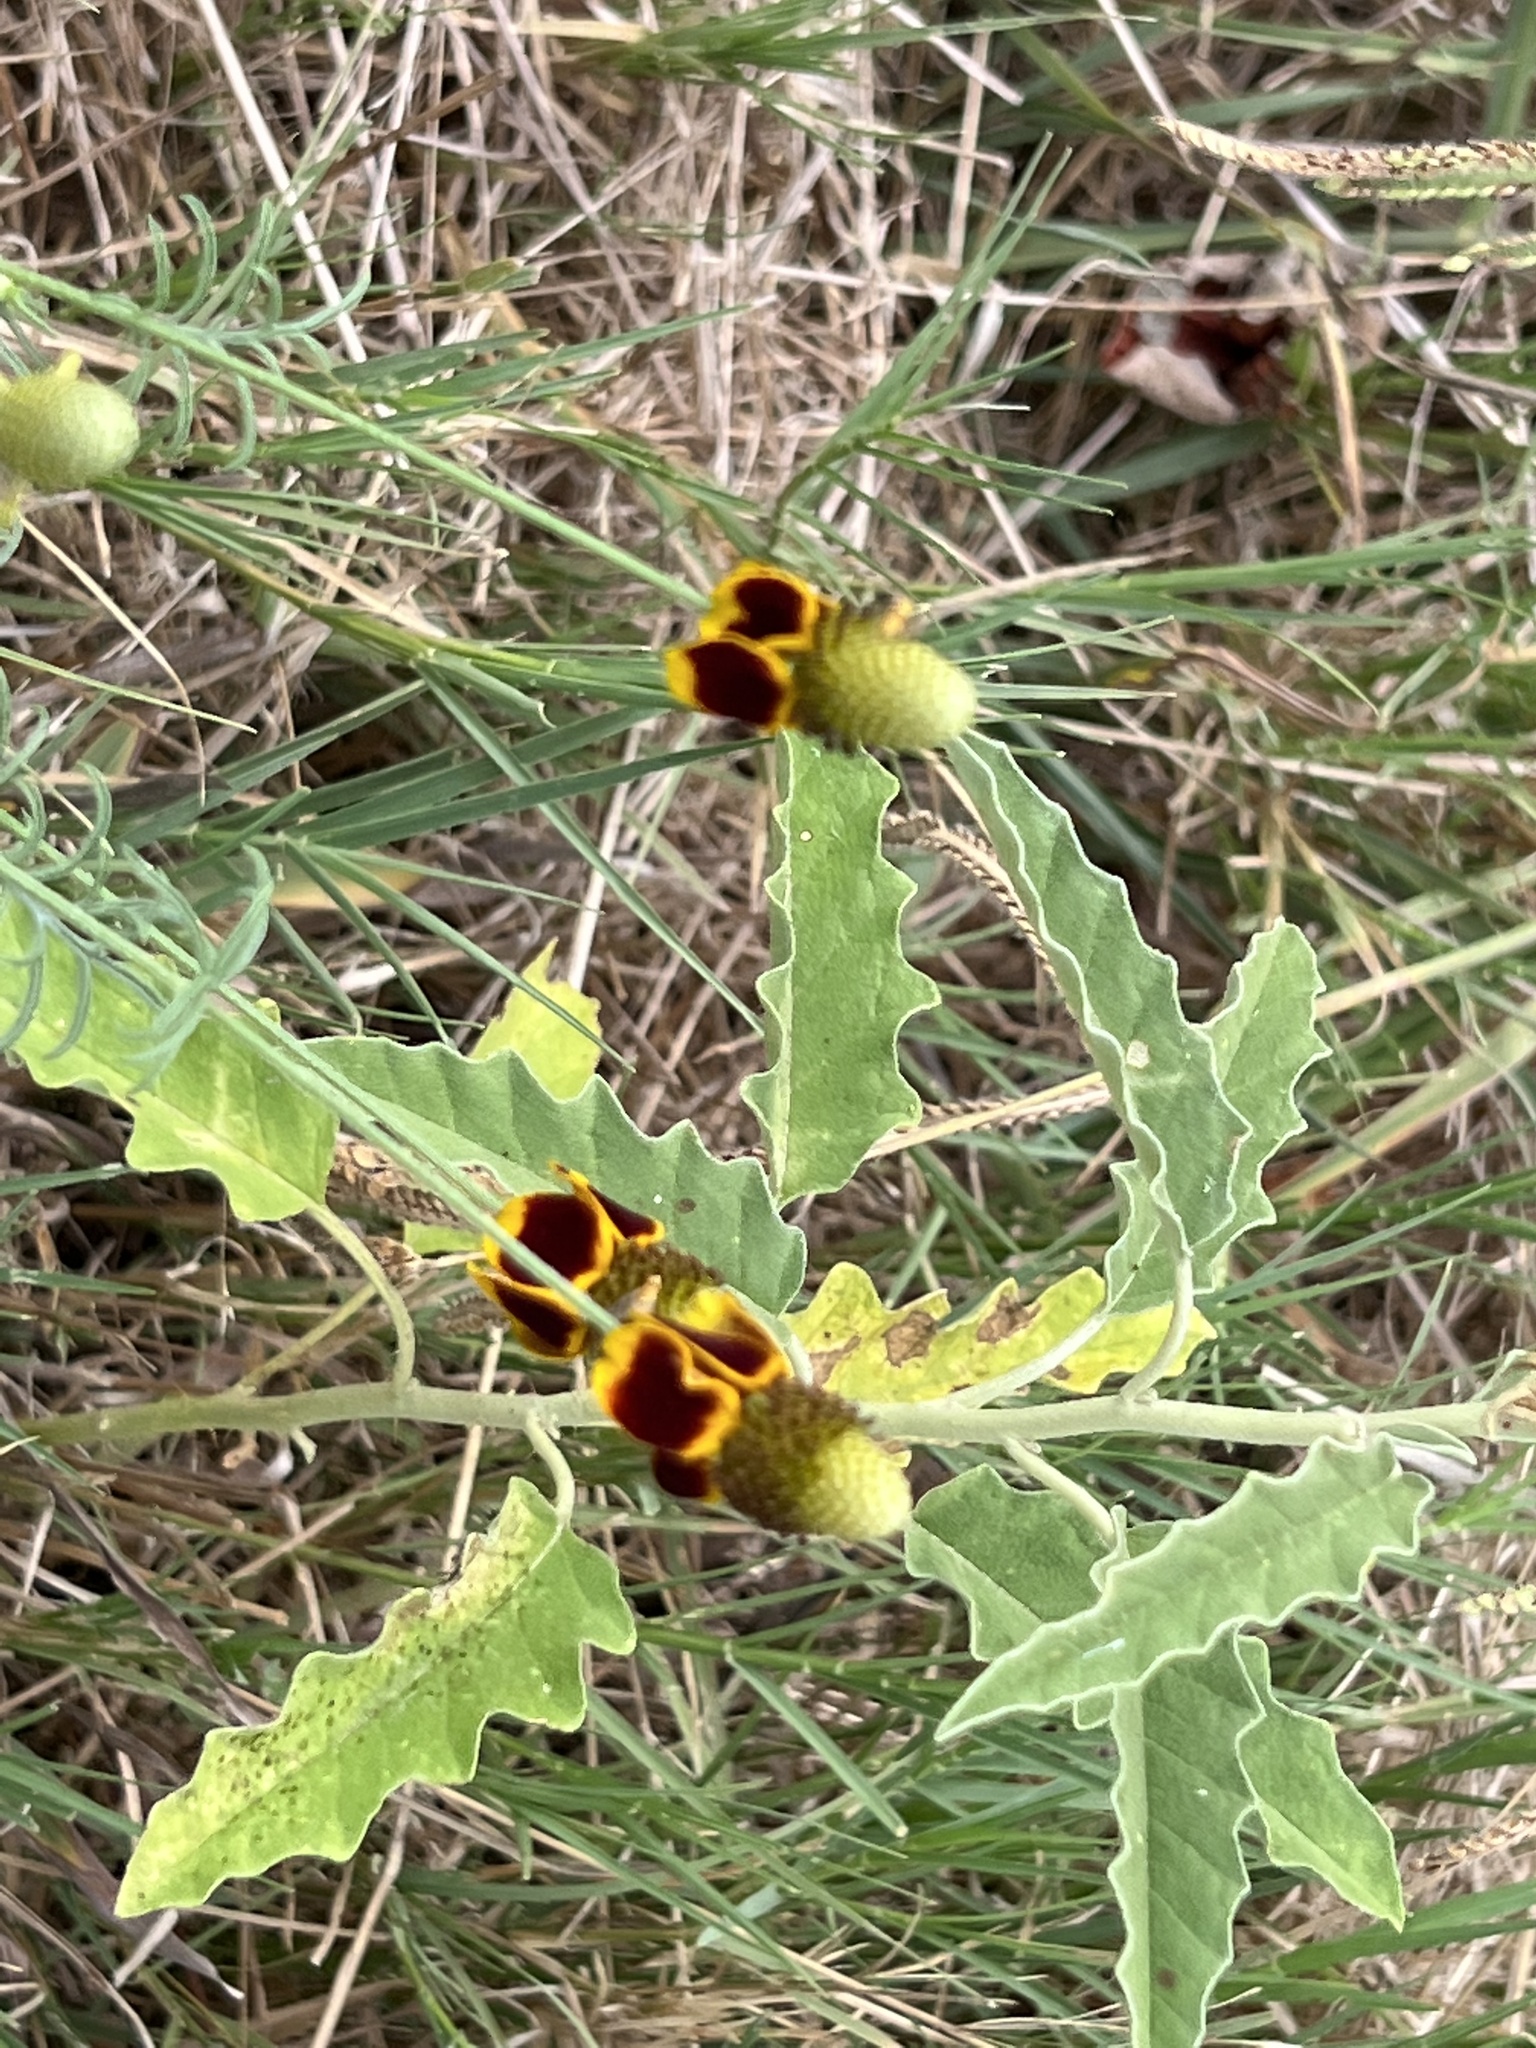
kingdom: Plantae
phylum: Tracheophyta
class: Magnoliopsida
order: Asterales
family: Asteraceae
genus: Ratibida
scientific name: Ratibida columnifera
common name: Prairie coneflower
